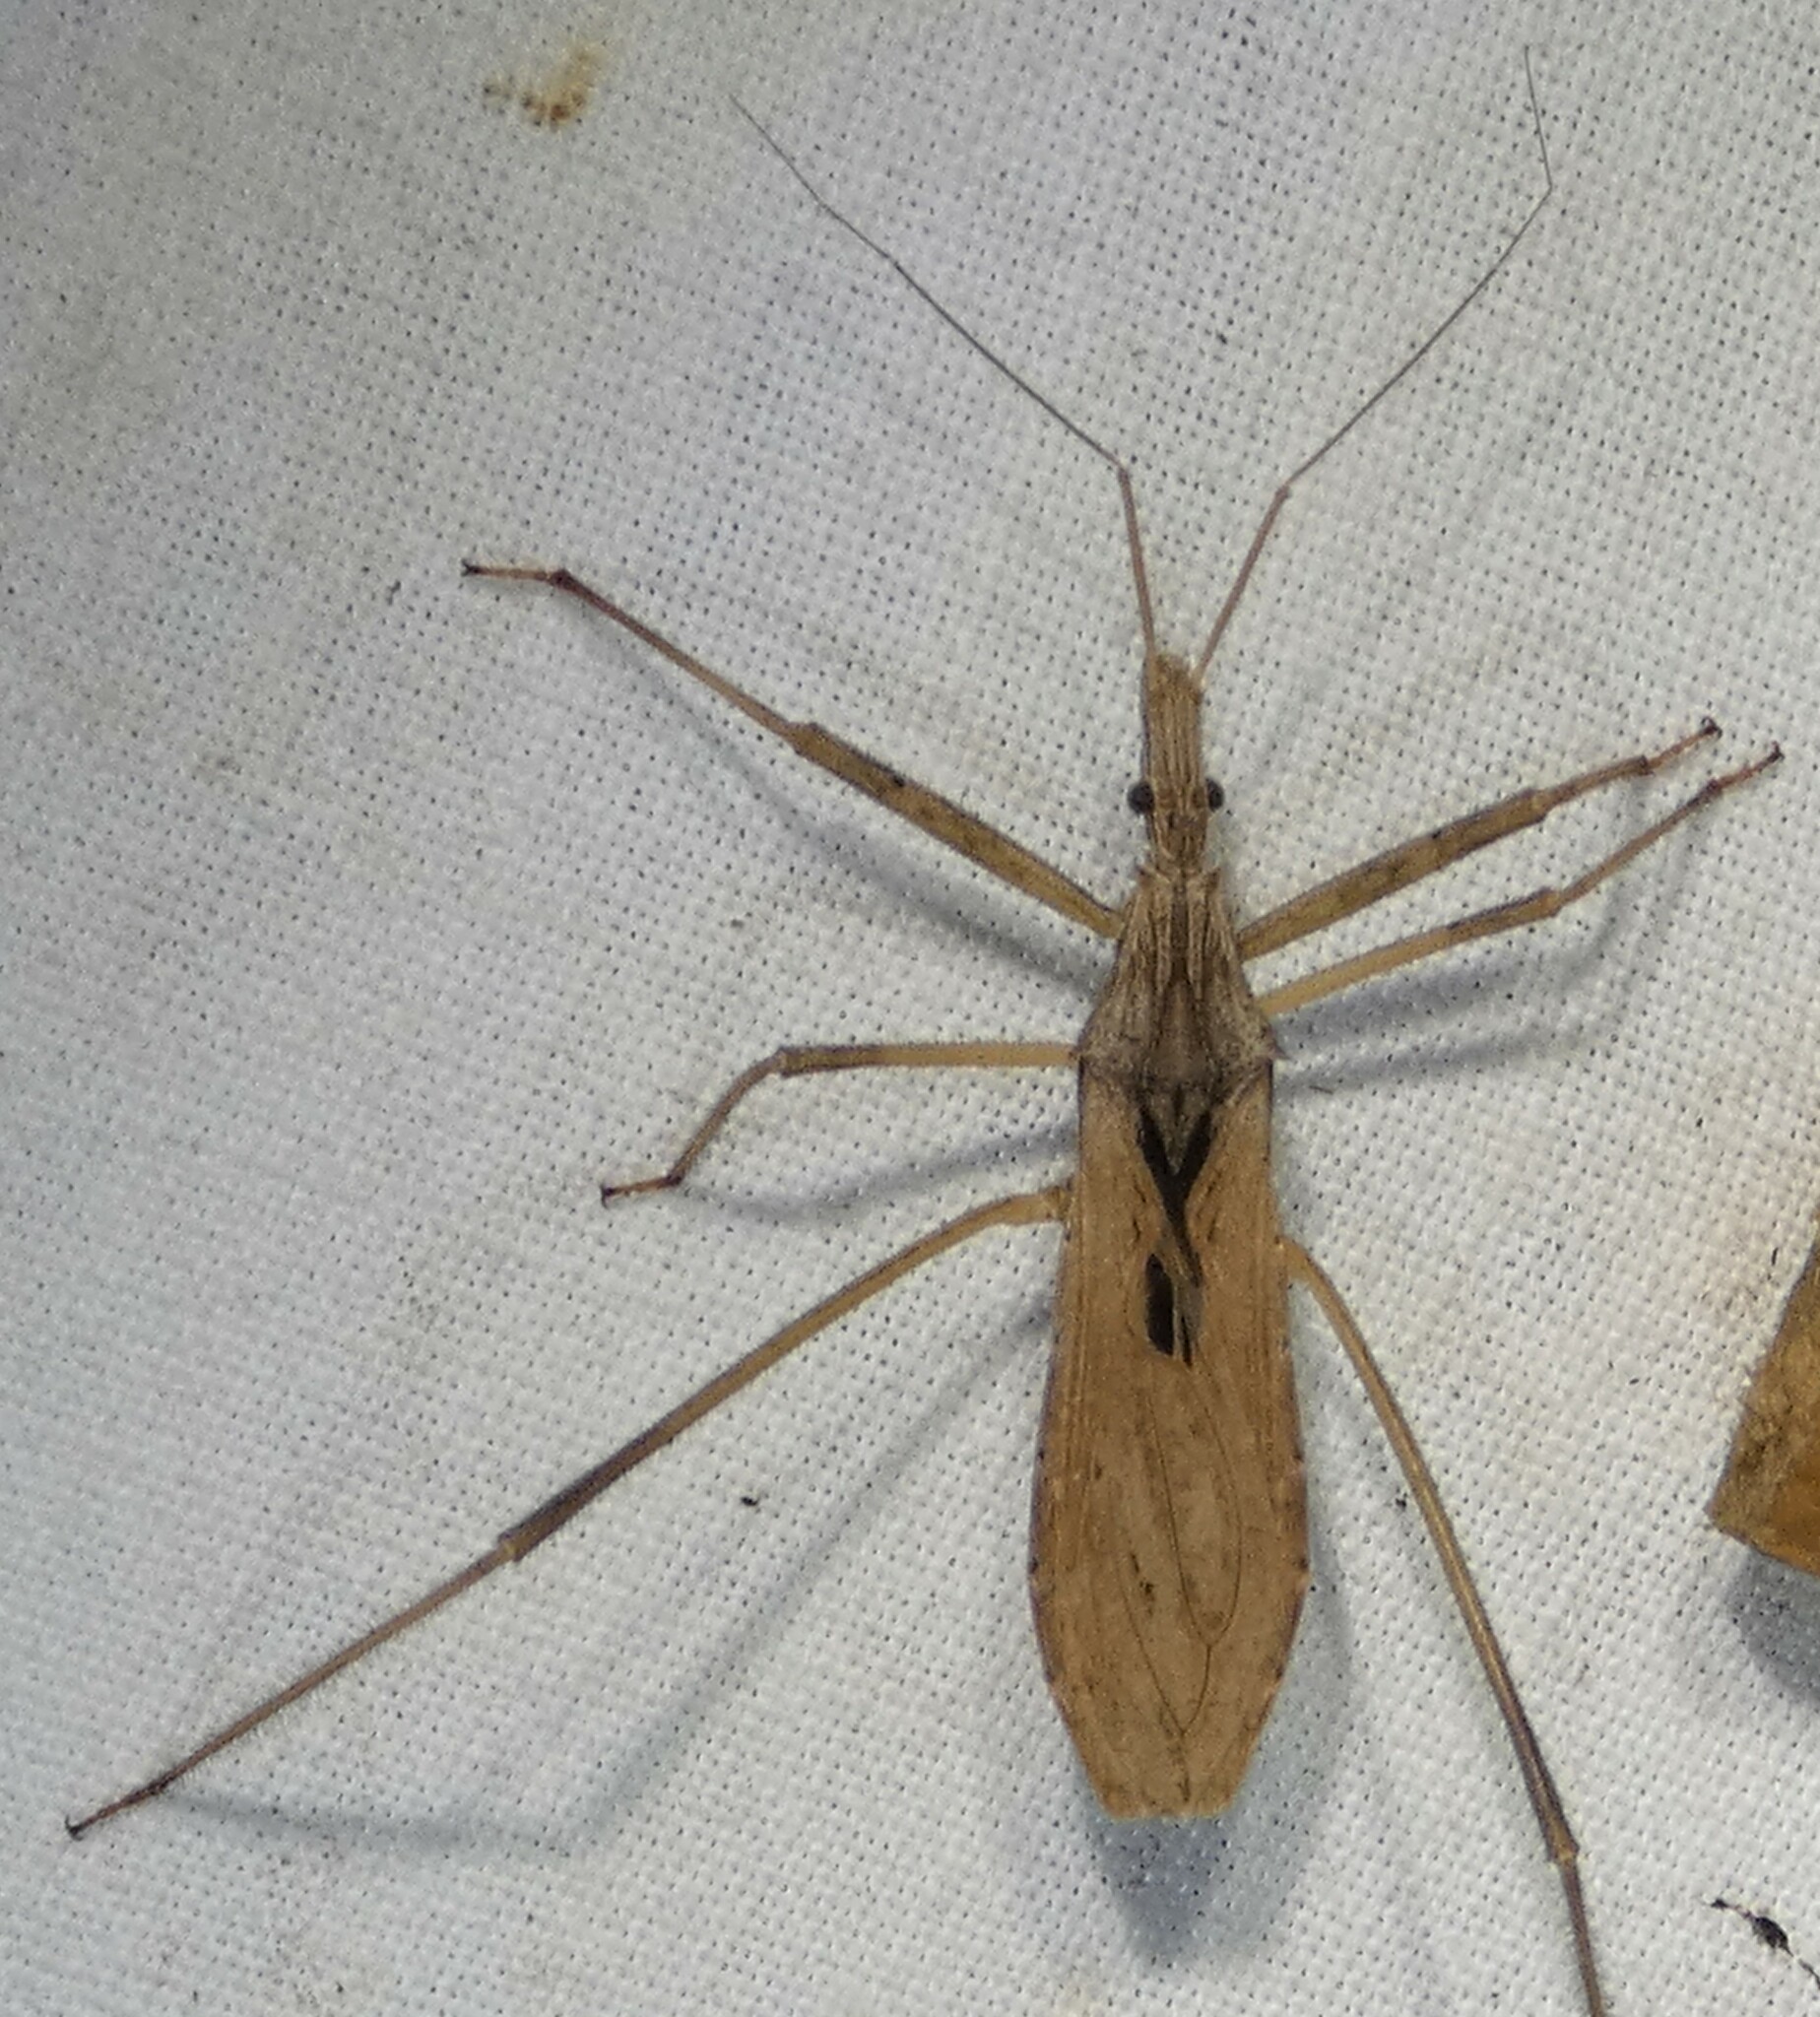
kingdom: Animalia
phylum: Arthropoda
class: Insecta
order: Hemiptera
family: Reduviidae
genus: Stenopoda
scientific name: Stenopoda spinulosa
